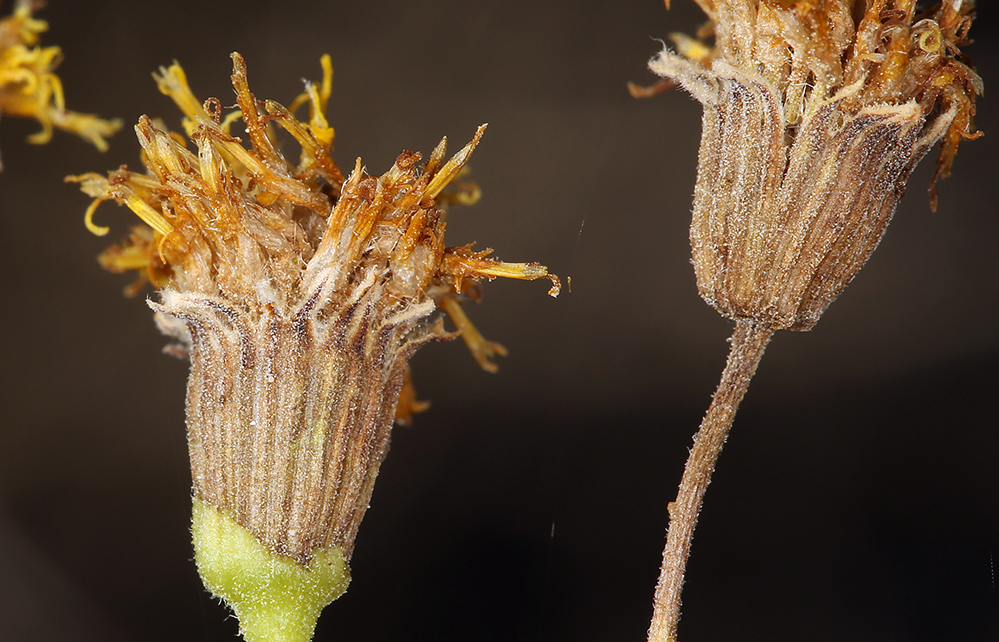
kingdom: Plantae
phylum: Tracheophyta
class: Magnoliopsida
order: Asterales
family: Asteraceae
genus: Pericome
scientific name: Pericome caudata
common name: Taperleaf
